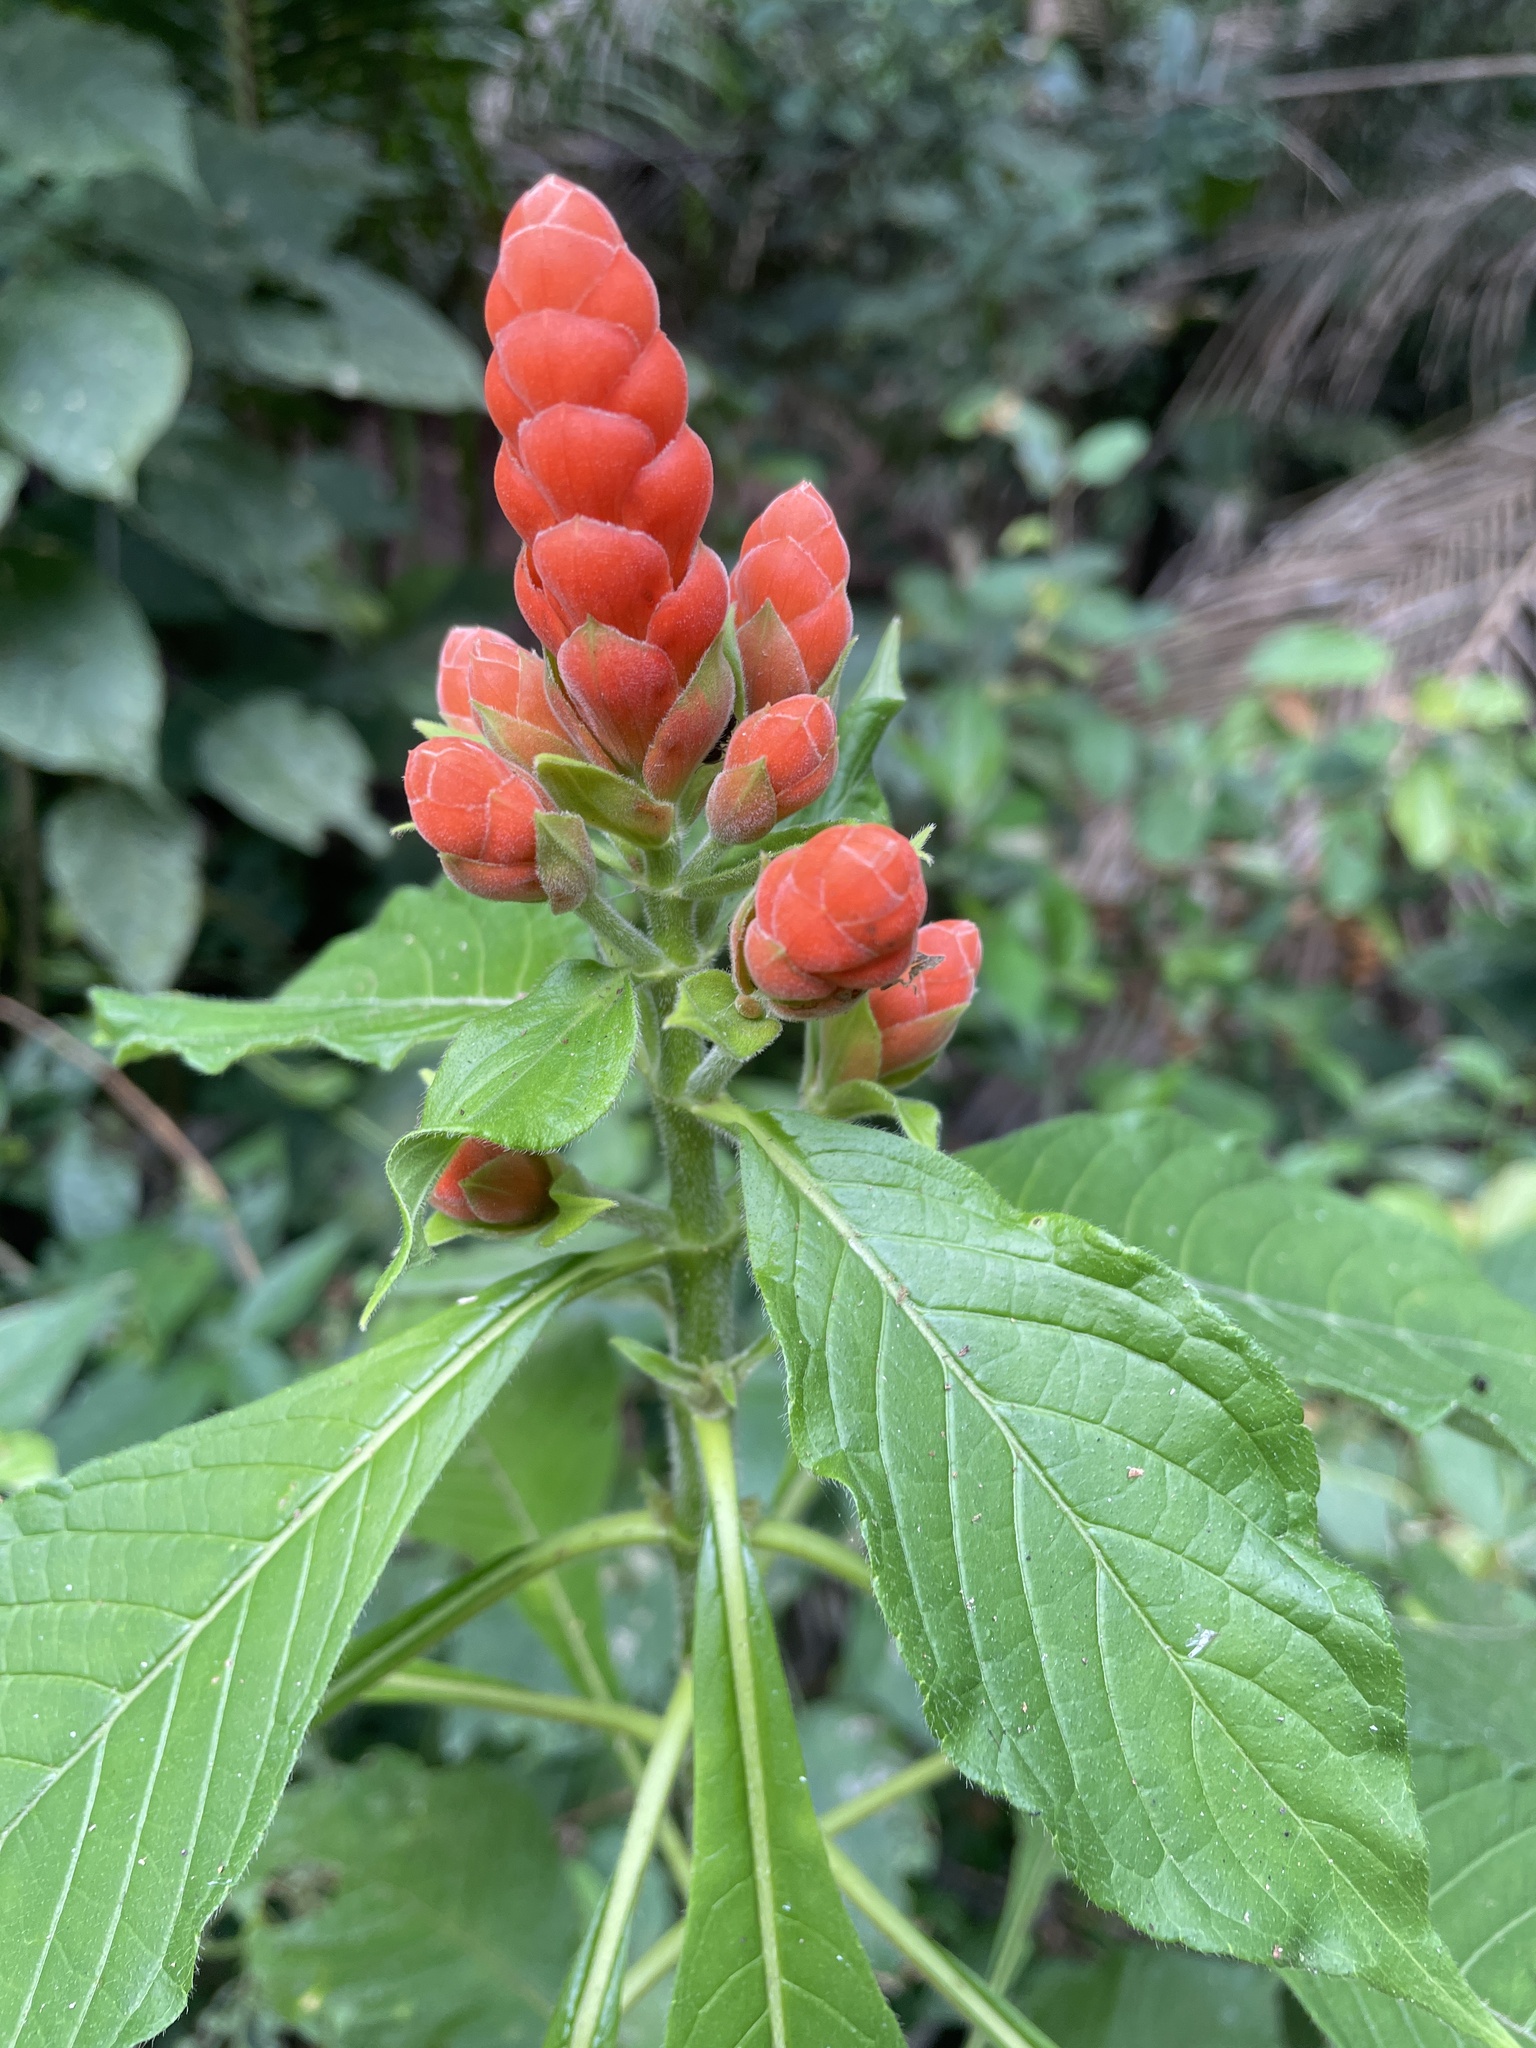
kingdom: Plantae
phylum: Tracheophyta
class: Magnoliopsida
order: Lamiales
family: Acanthaceae
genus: Aphelandra
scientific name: Aphelandra sinclairiana
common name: Coral aphelandra
